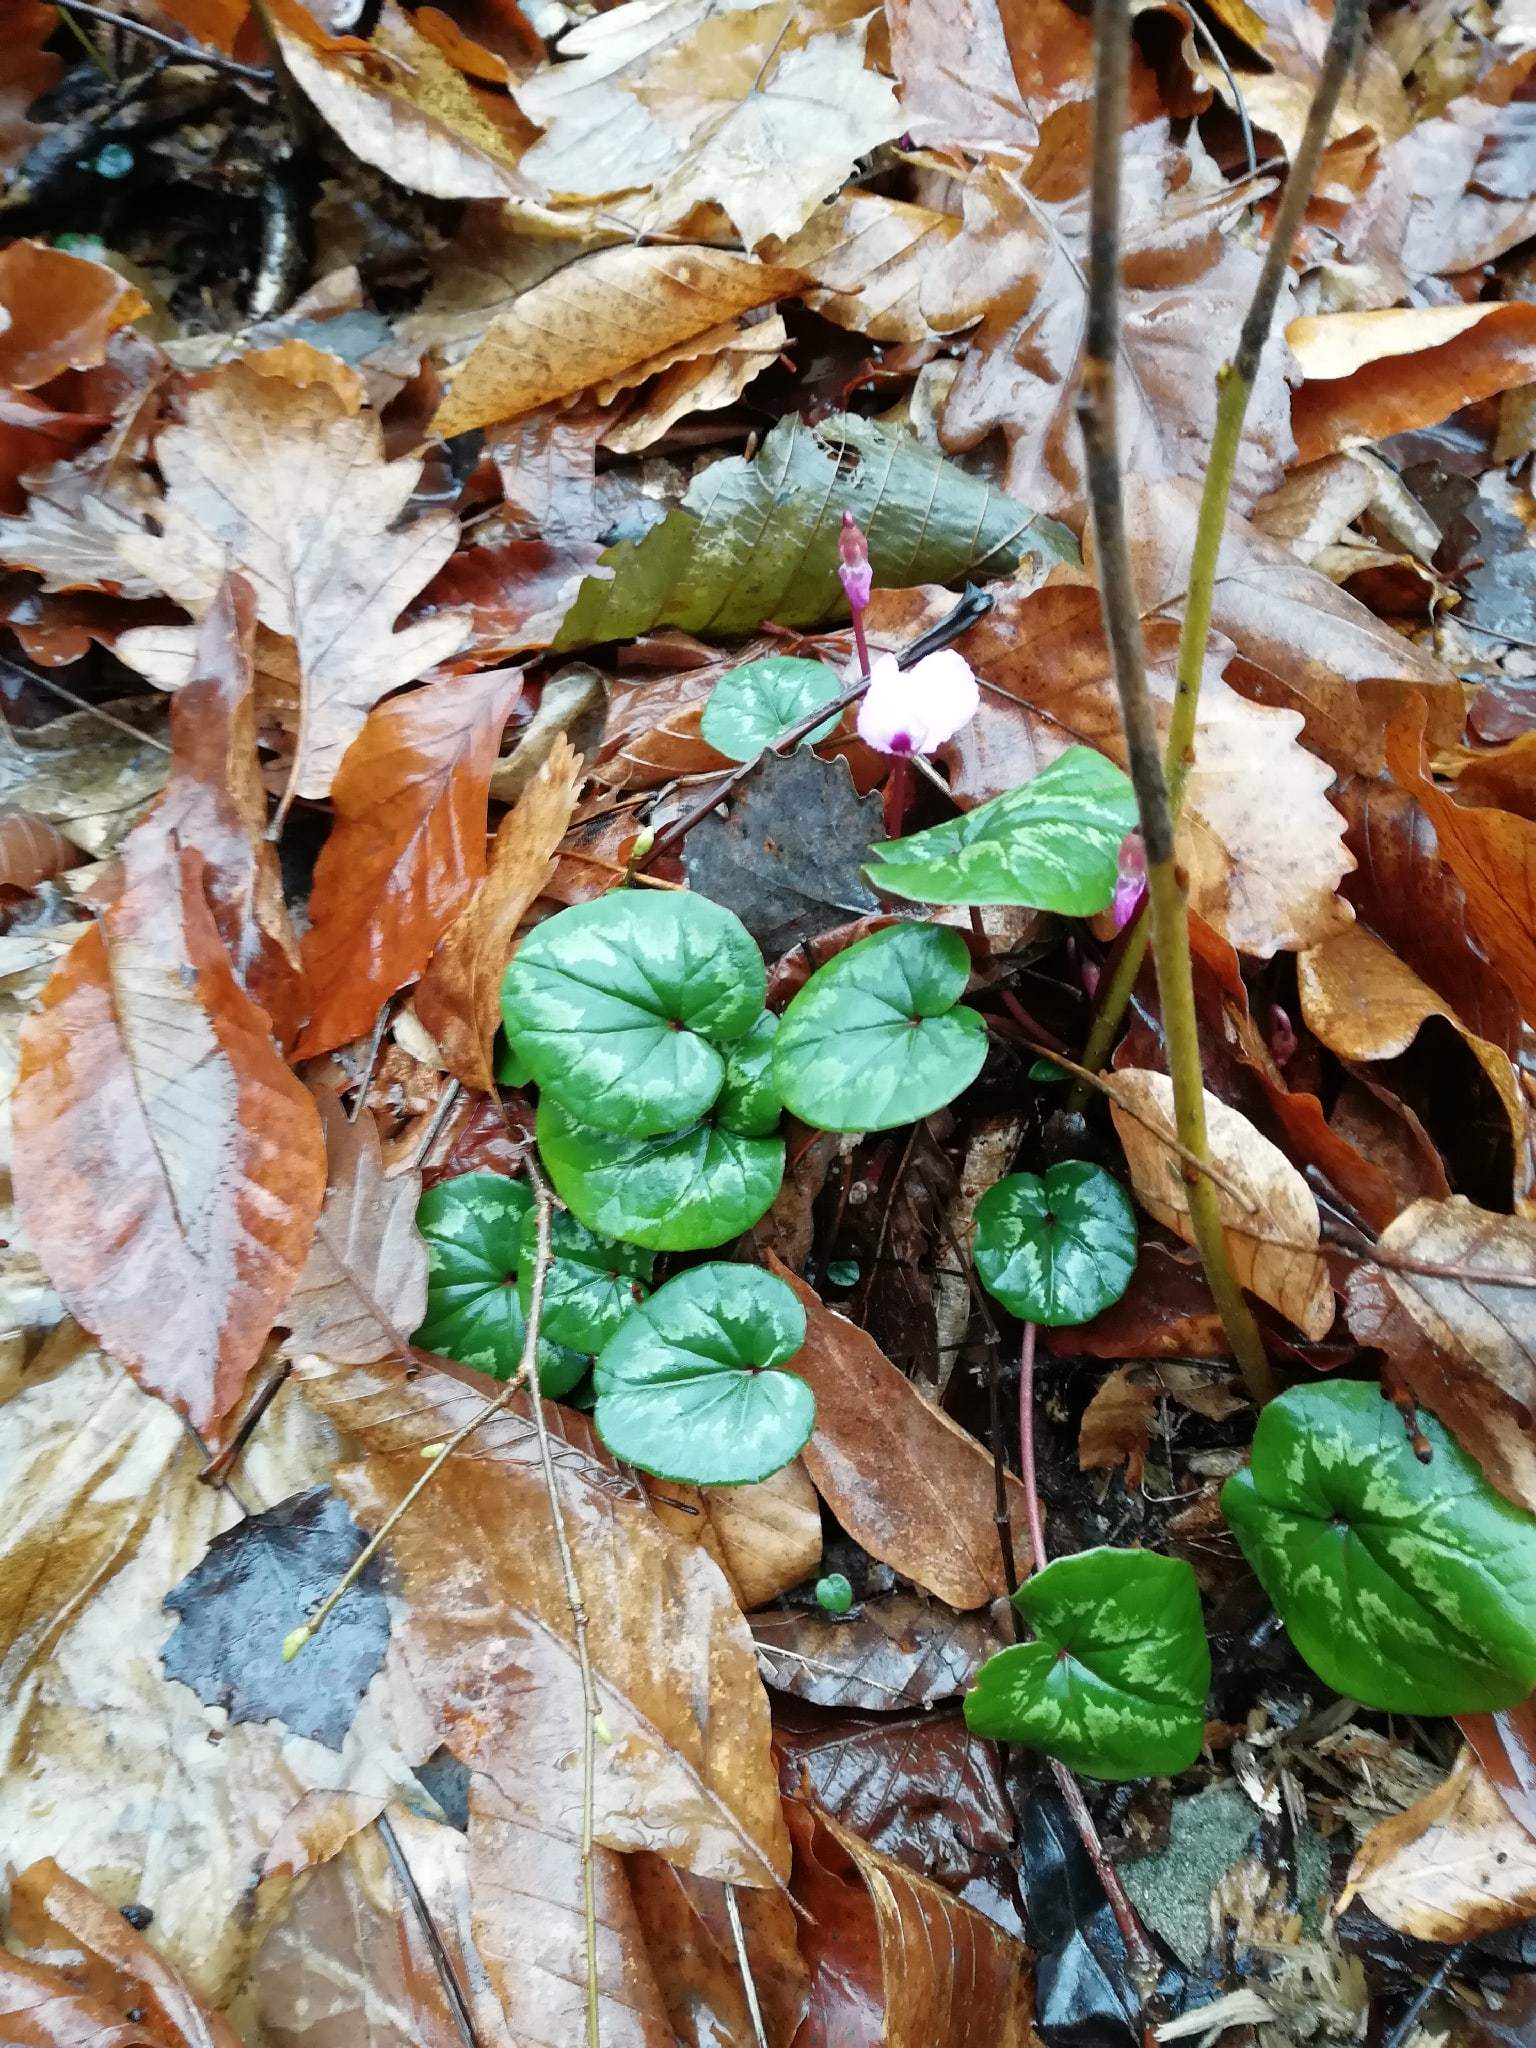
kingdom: Plantae
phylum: Tracheophyta
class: Magnoliopsida
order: Ericales
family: Primulaceae
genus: Cyclamen
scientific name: Cyclamen coum
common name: Eastern sowbread
